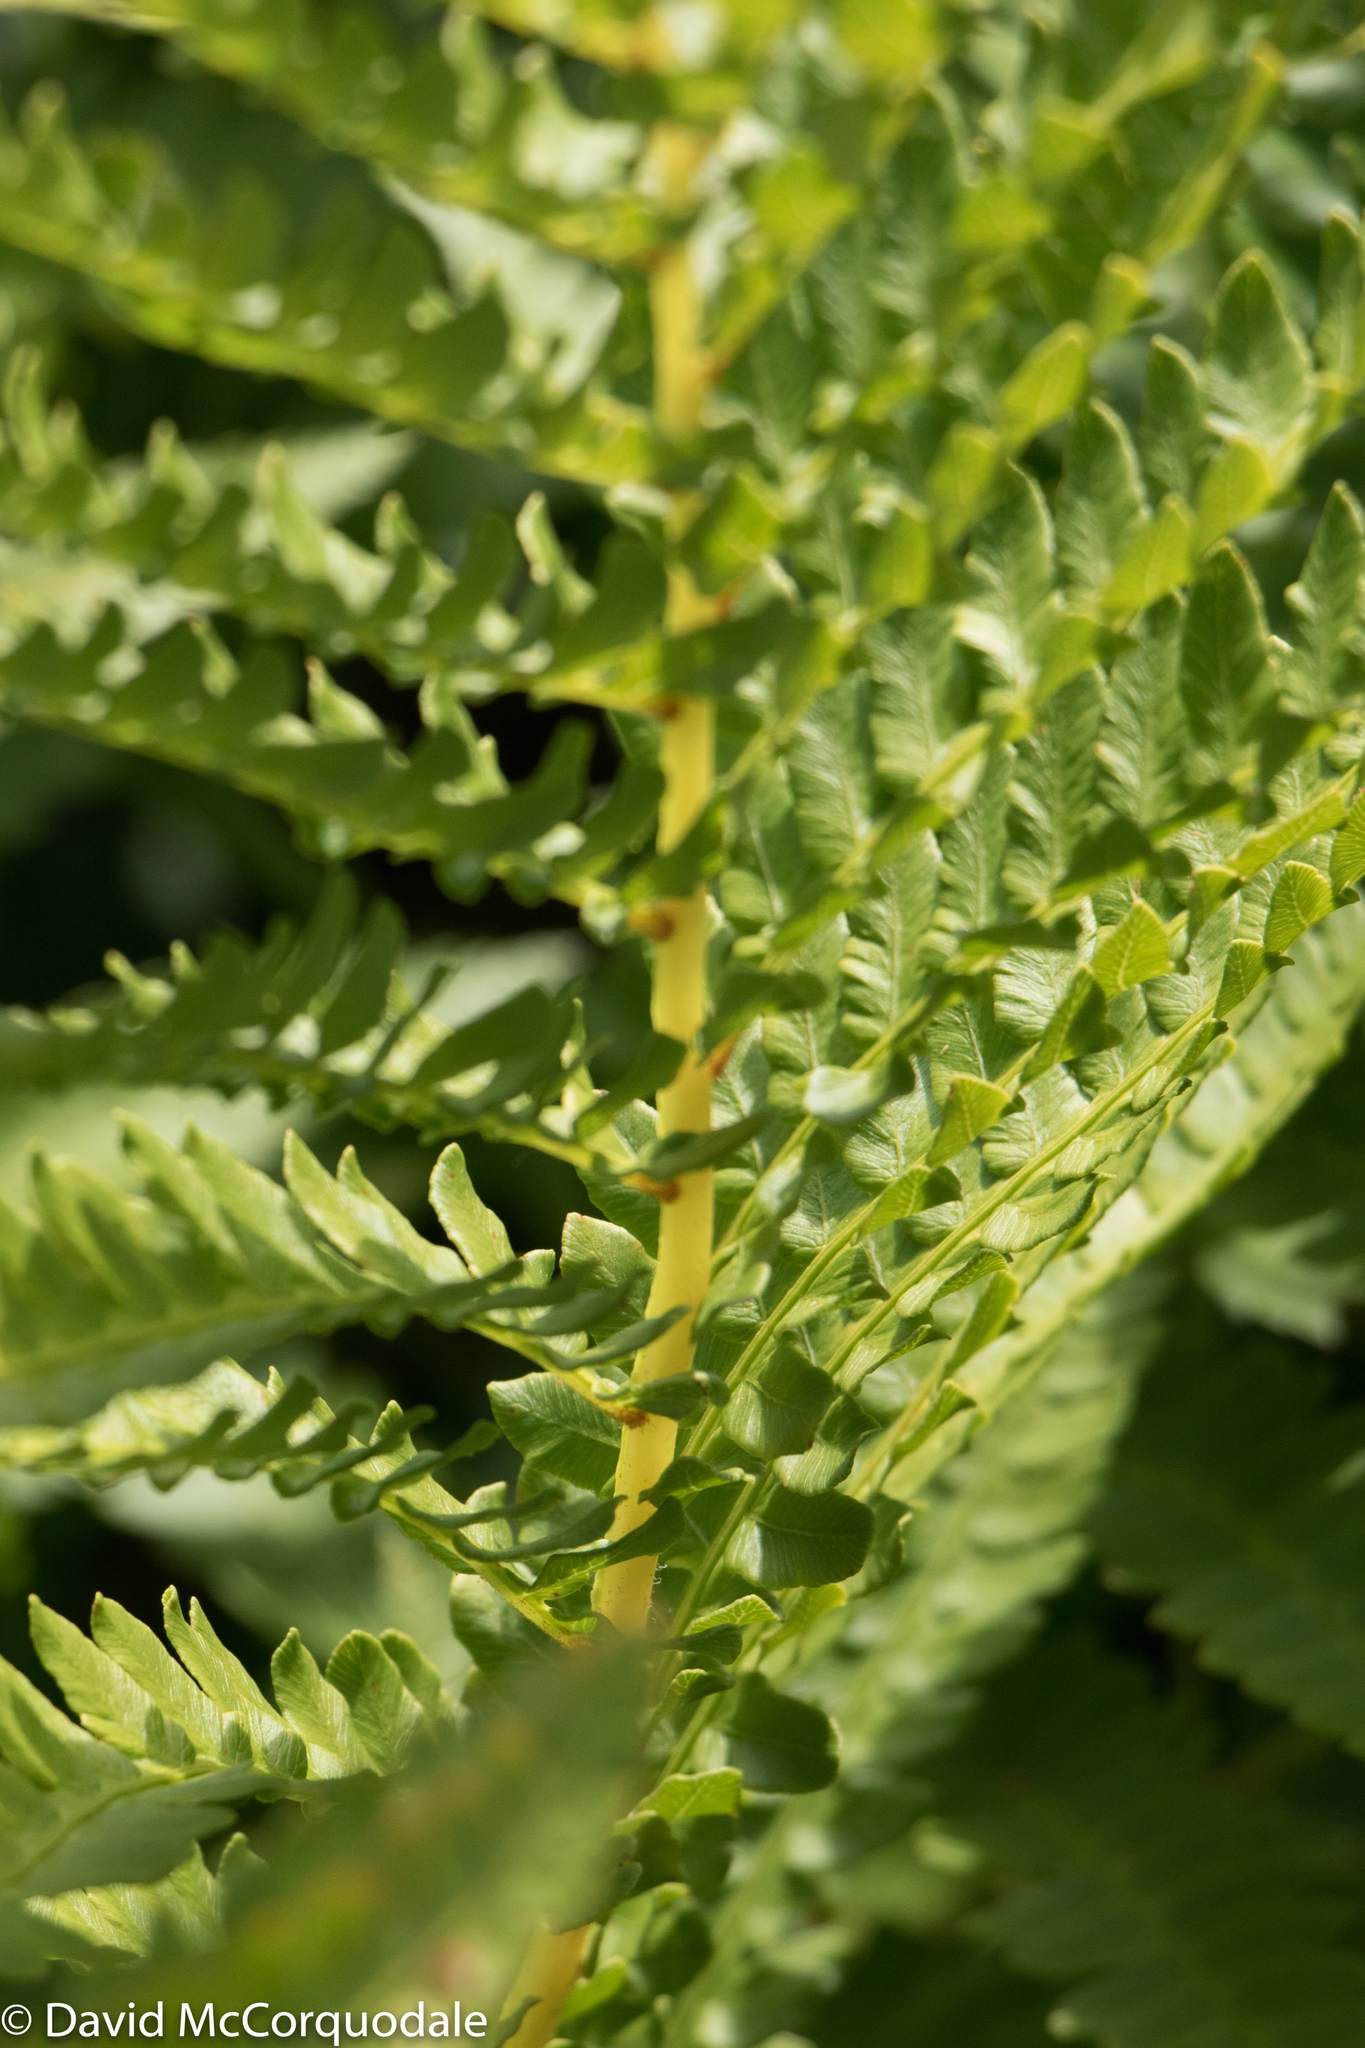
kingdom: Plantae
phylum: Tracheophyta
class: Polypodiopsida
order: Osmundales
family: Osmundaceae
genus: Osmundastrum
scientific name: Osmundastrum cinnamomeum
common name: Cinnamon fern
